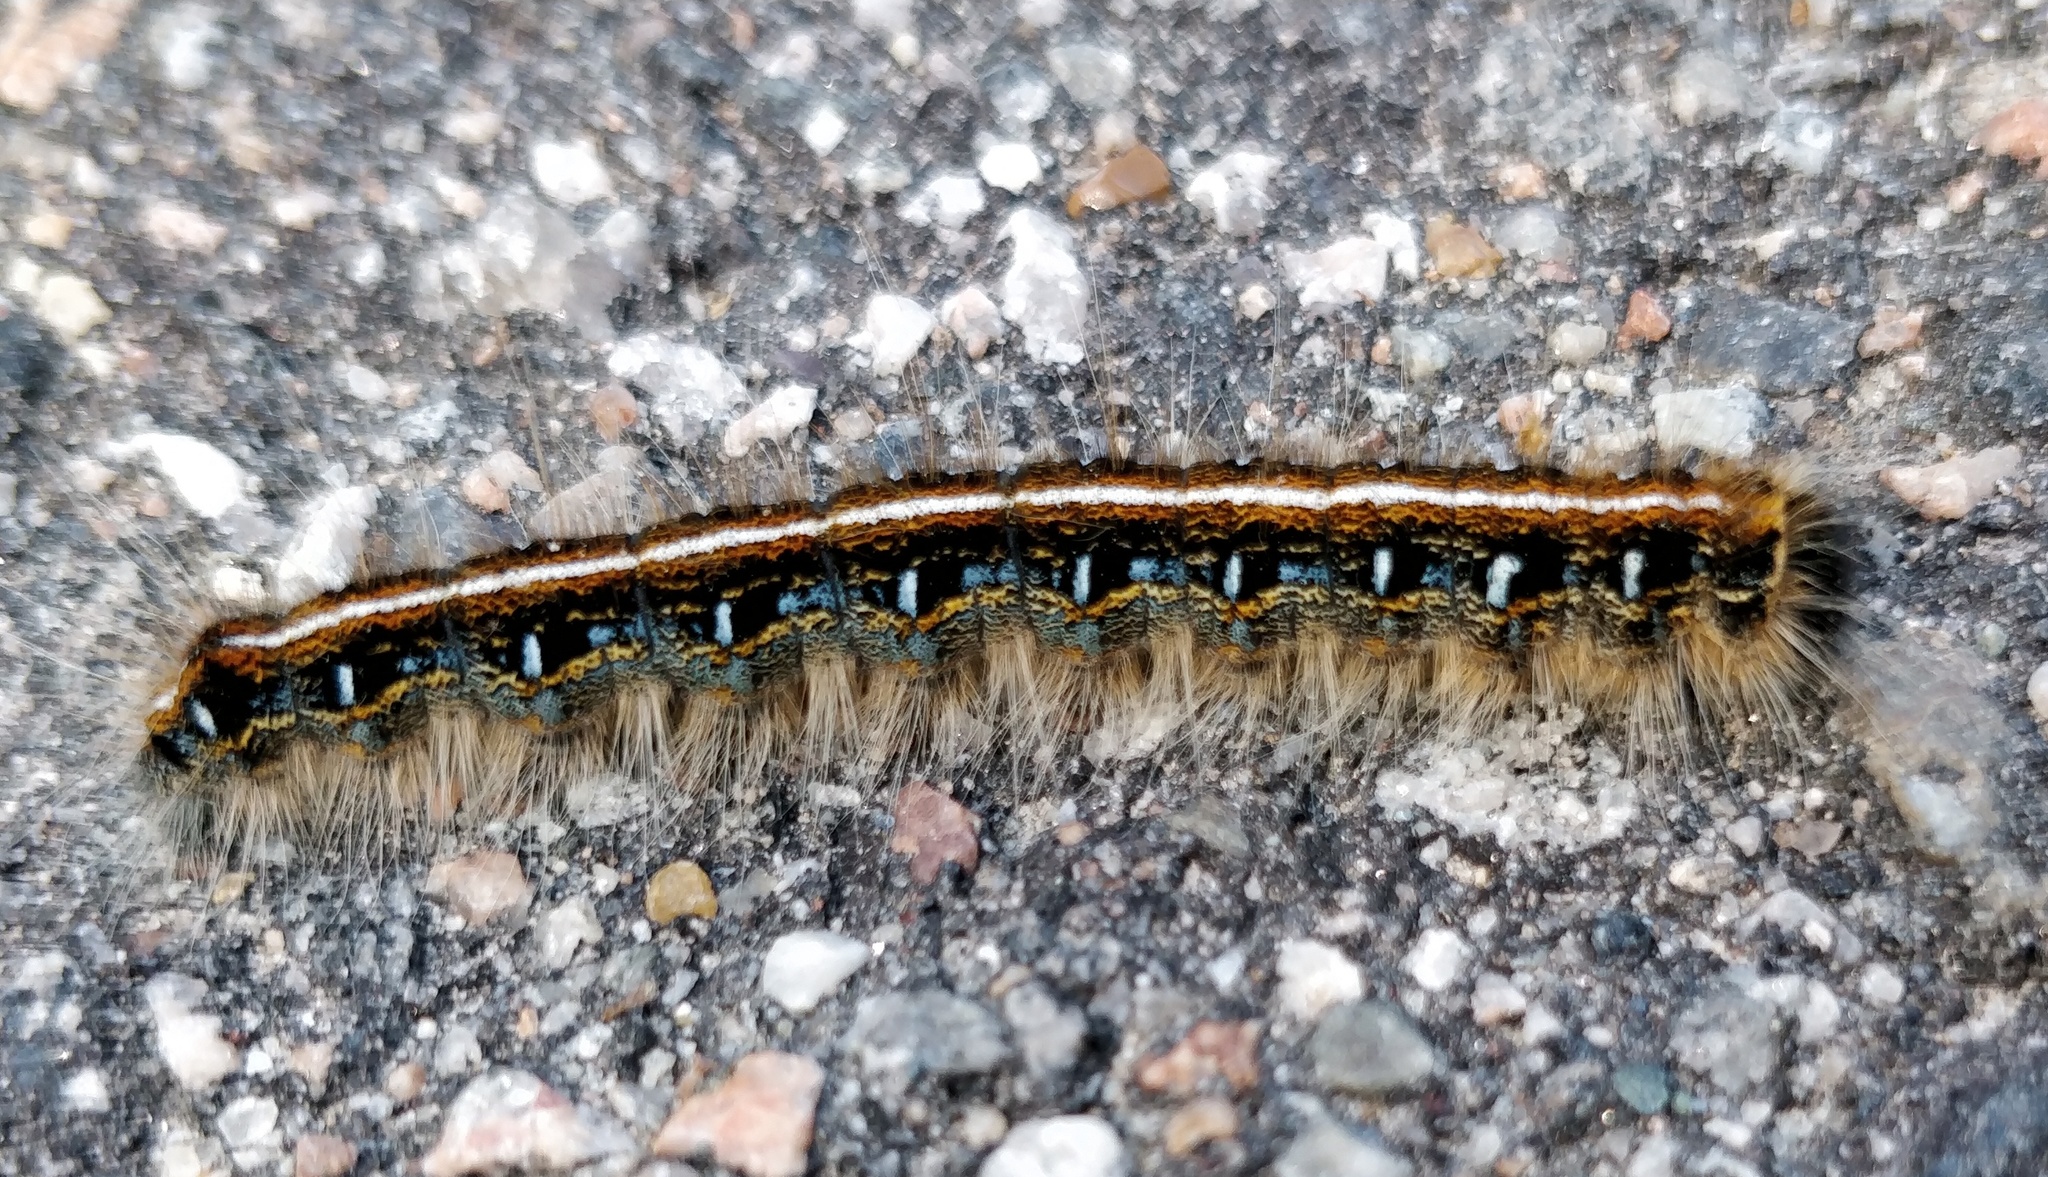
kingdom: Animalia
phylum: Arthropoda
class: Insecta
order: Lepidoptera
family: Lasiocampidae
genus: Malacosoma
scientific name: Malacosoma americana
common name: Eastern tent caterpillar moth
